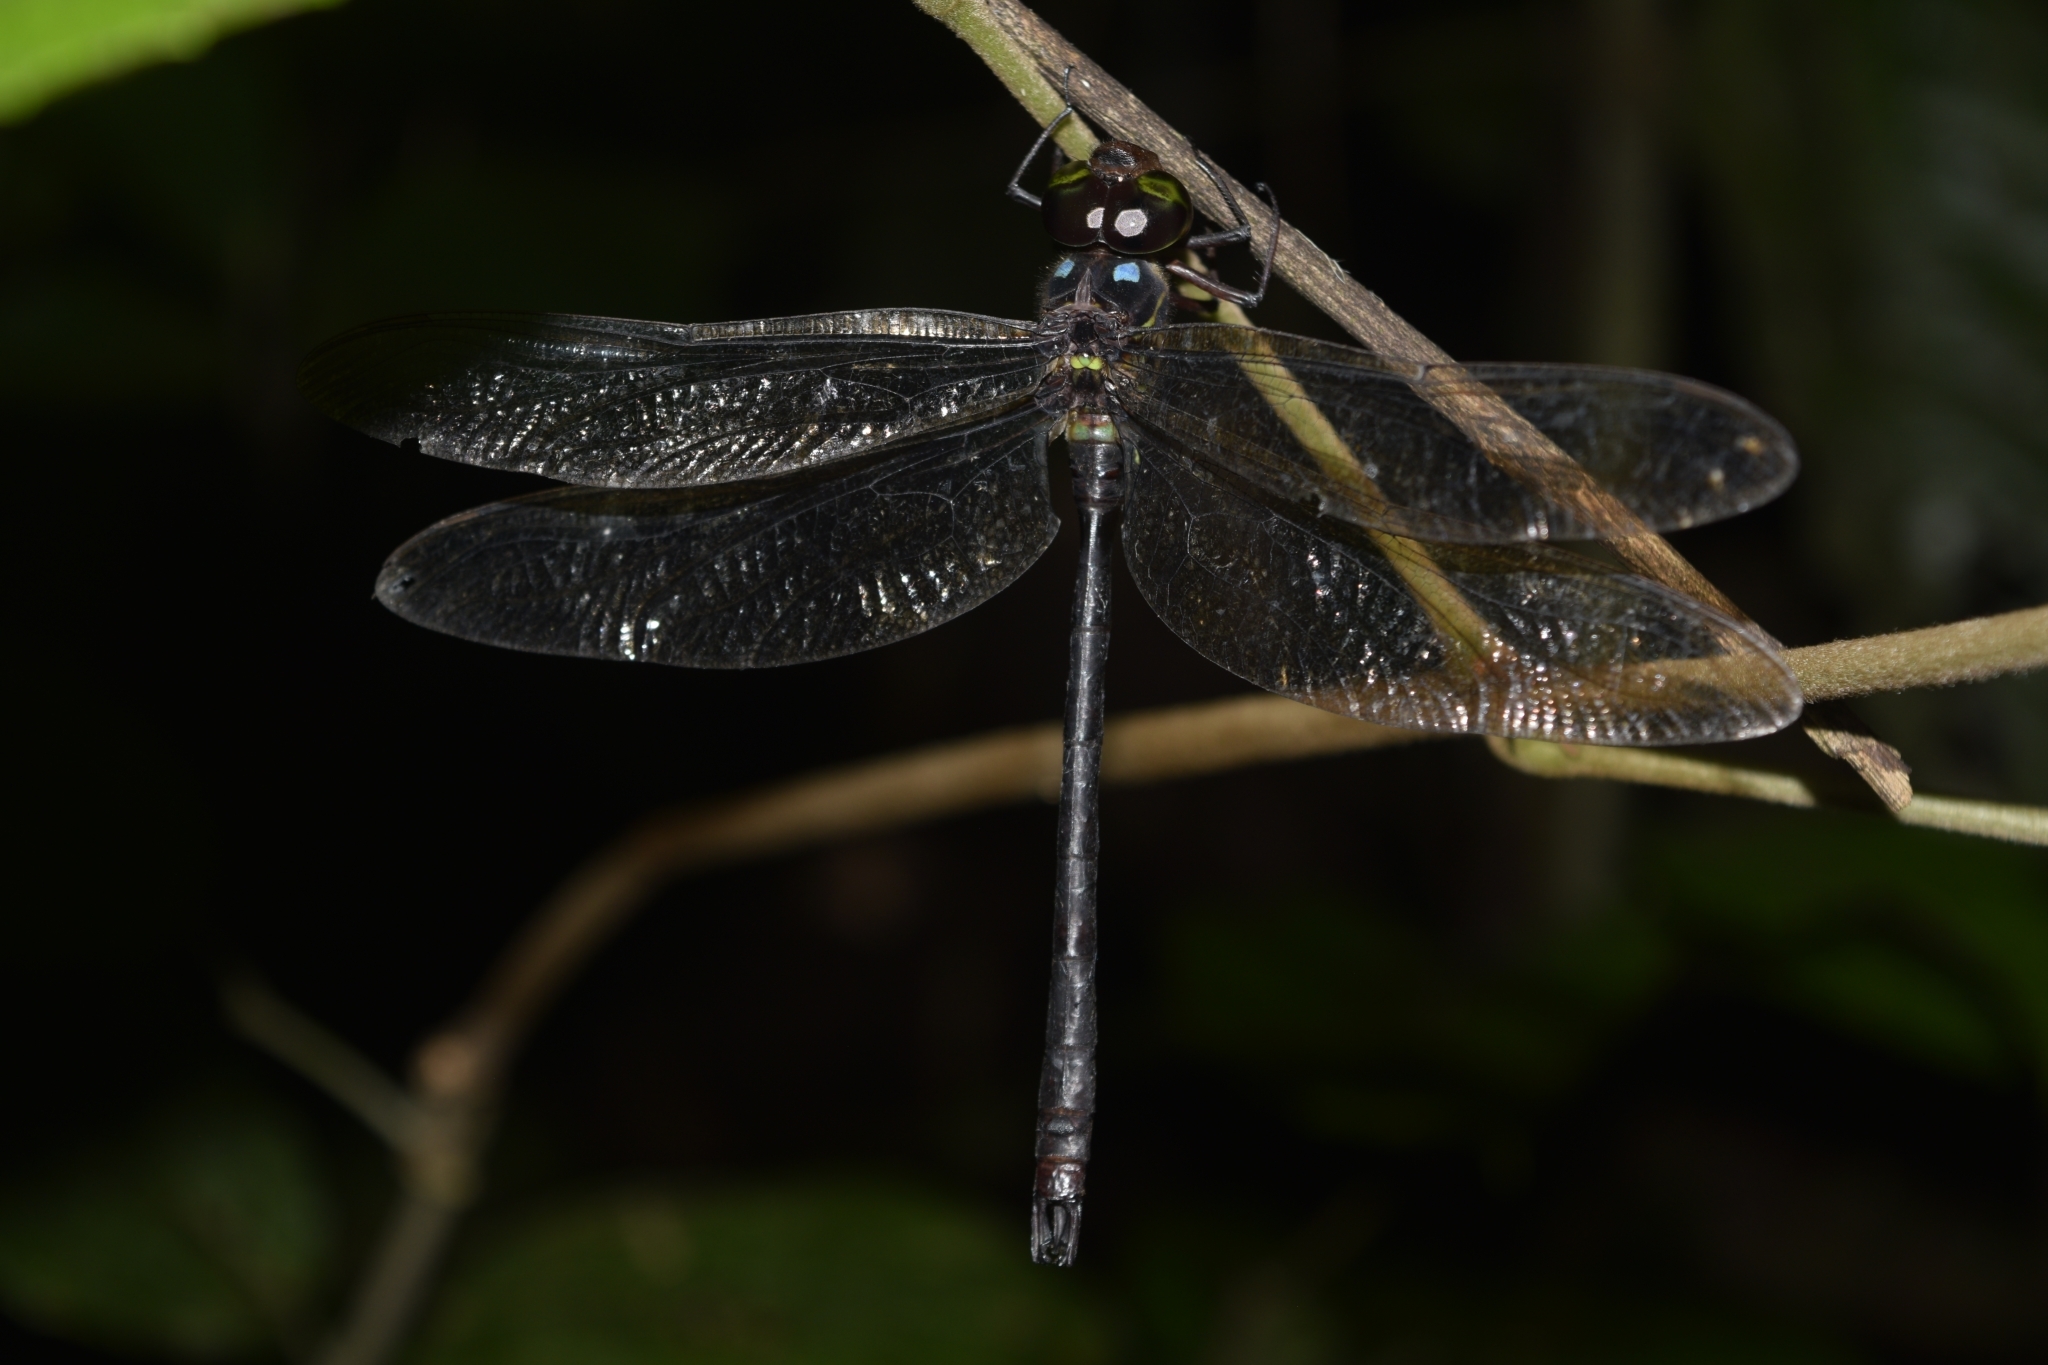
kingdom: Animalia
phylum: Arthropoda
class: Insecta
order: Odonata
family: Aeshnidae
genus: Neuraeschna
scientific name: Neuraeschna maya
